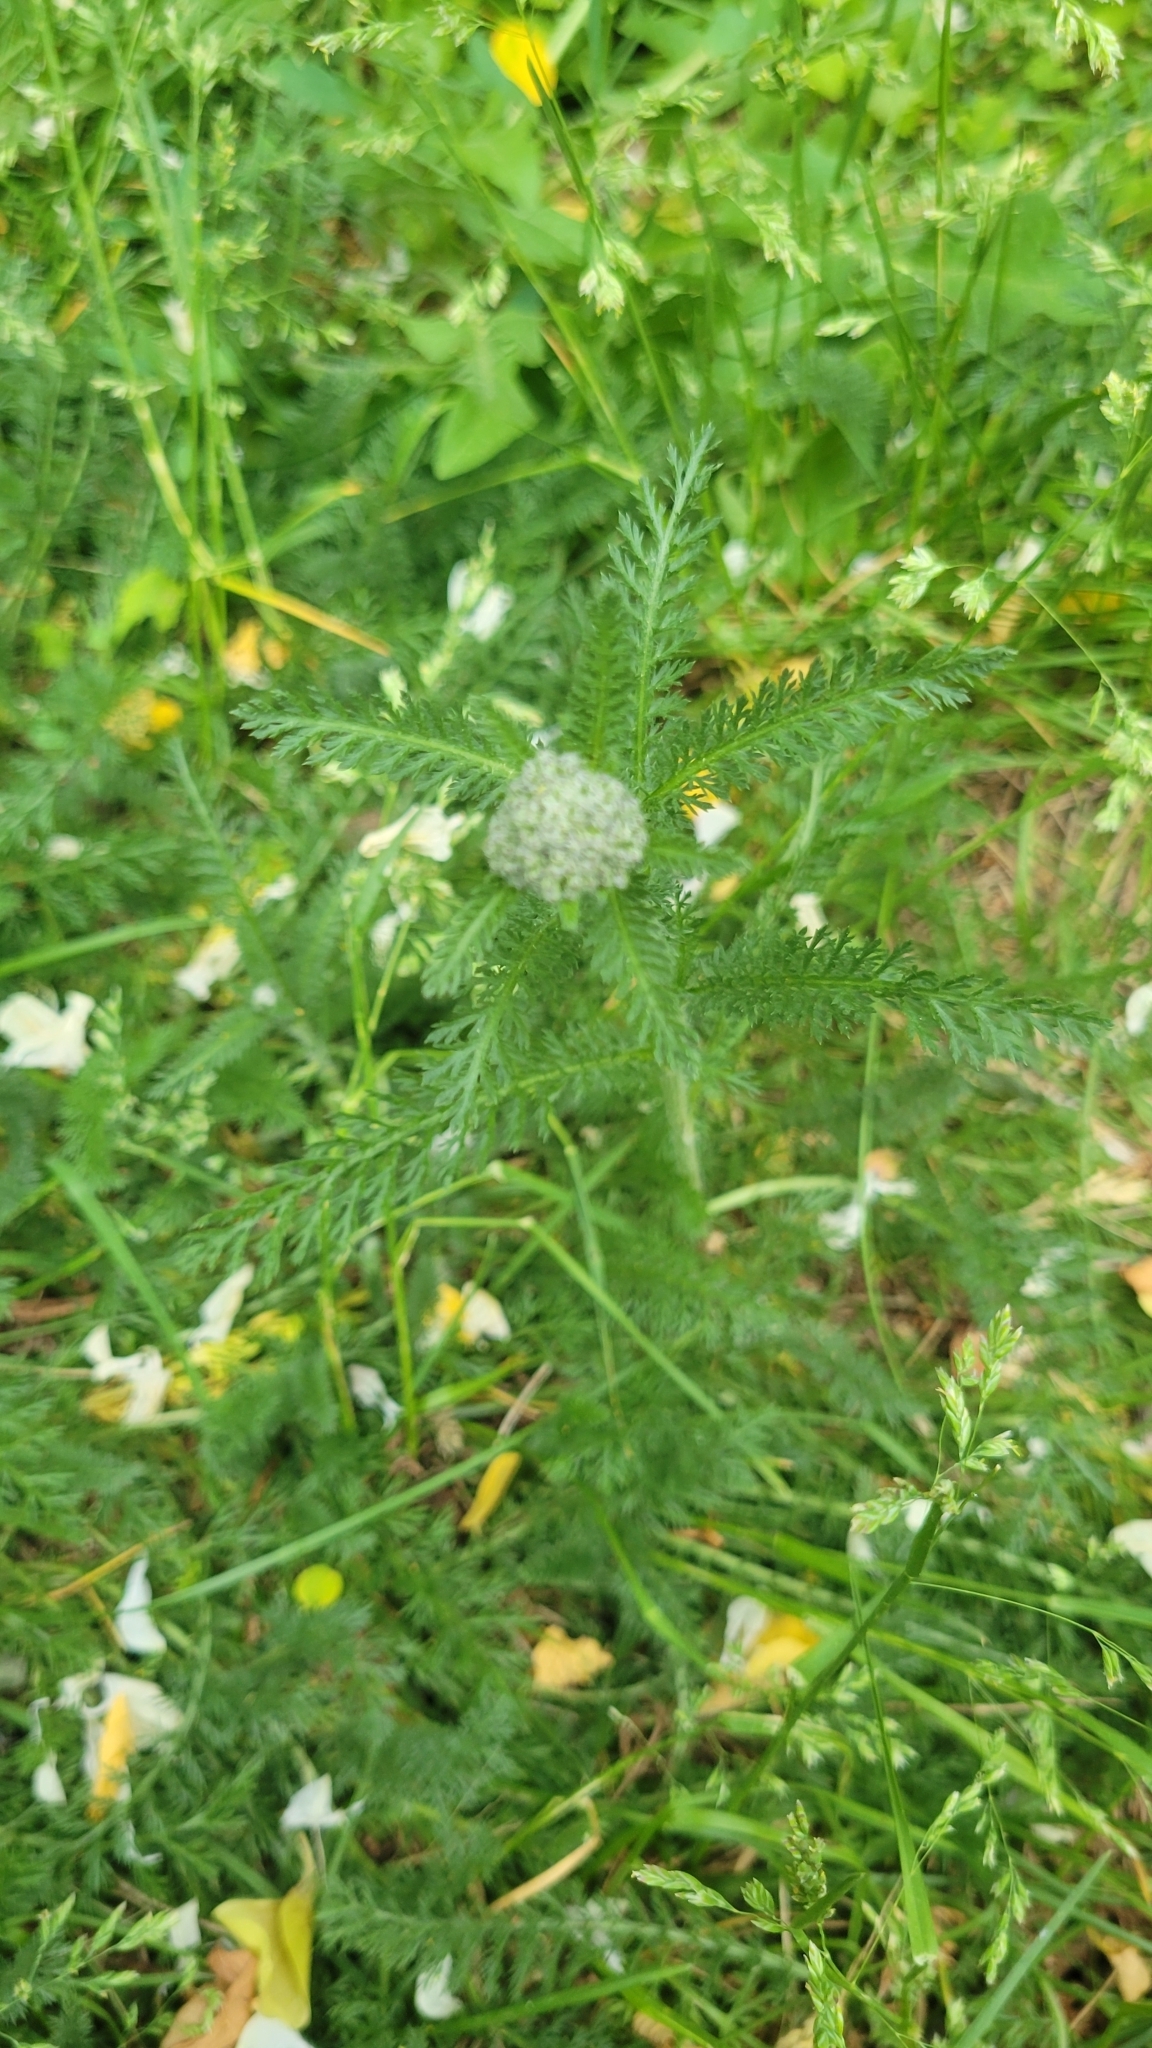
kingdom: Plantae
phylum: Tracheophyta
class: Magnoliopsida
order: Asterales
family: Asteraceae
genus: Achillea
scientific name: Achillea millefolium
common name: Yarrow
